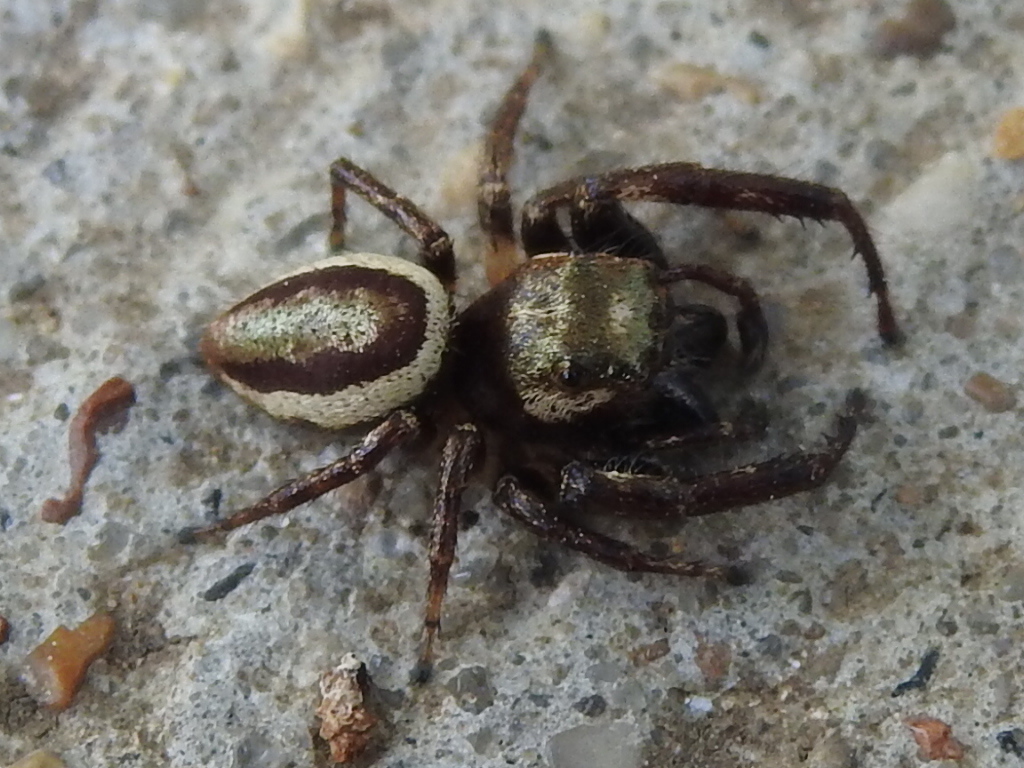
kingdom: Animalia
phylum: Arthropoda
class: Arachnida
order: Araneae
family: Salticidae
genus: Eris
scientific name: Eris militaris
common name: Bronze jumper
